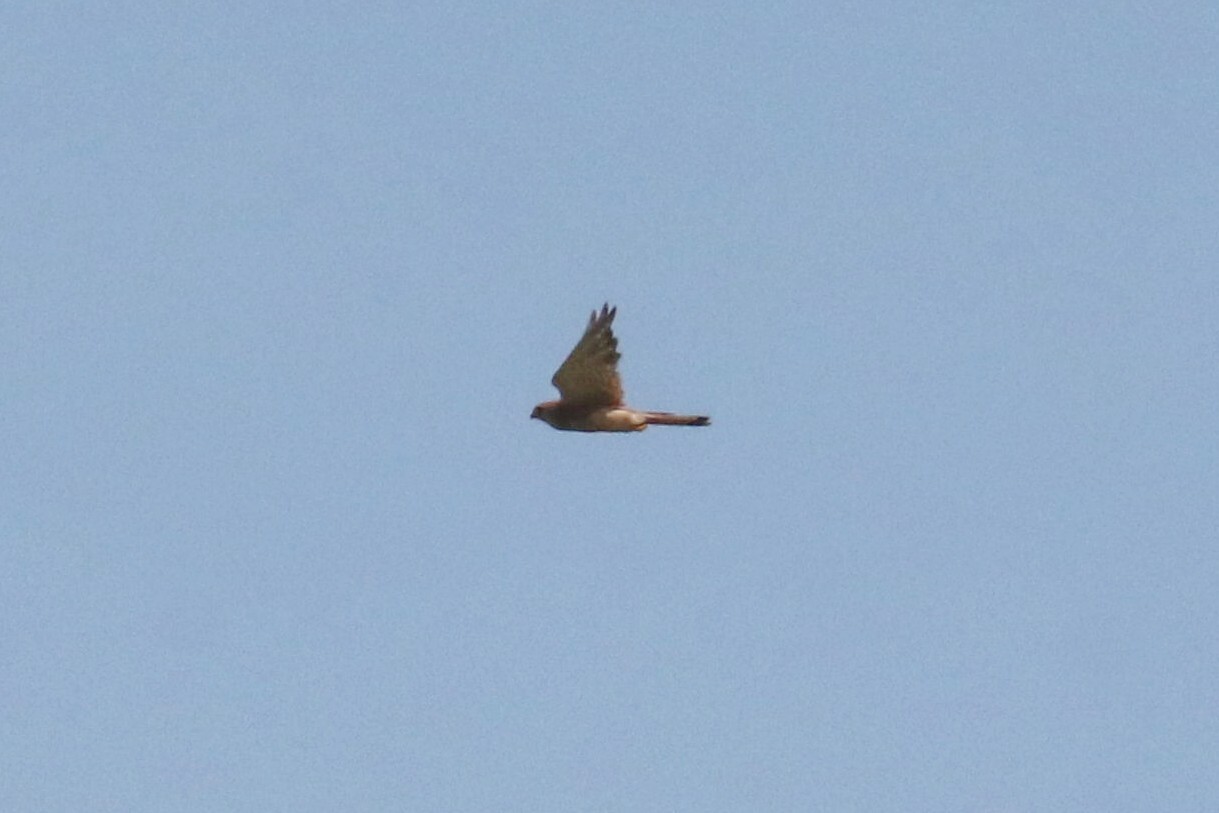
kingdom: Animalia
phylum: Chordata
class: Aves
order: Falconiformes
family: Falconidae
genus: Falco
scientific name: Falco tinnunculus
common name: Common kestrel
